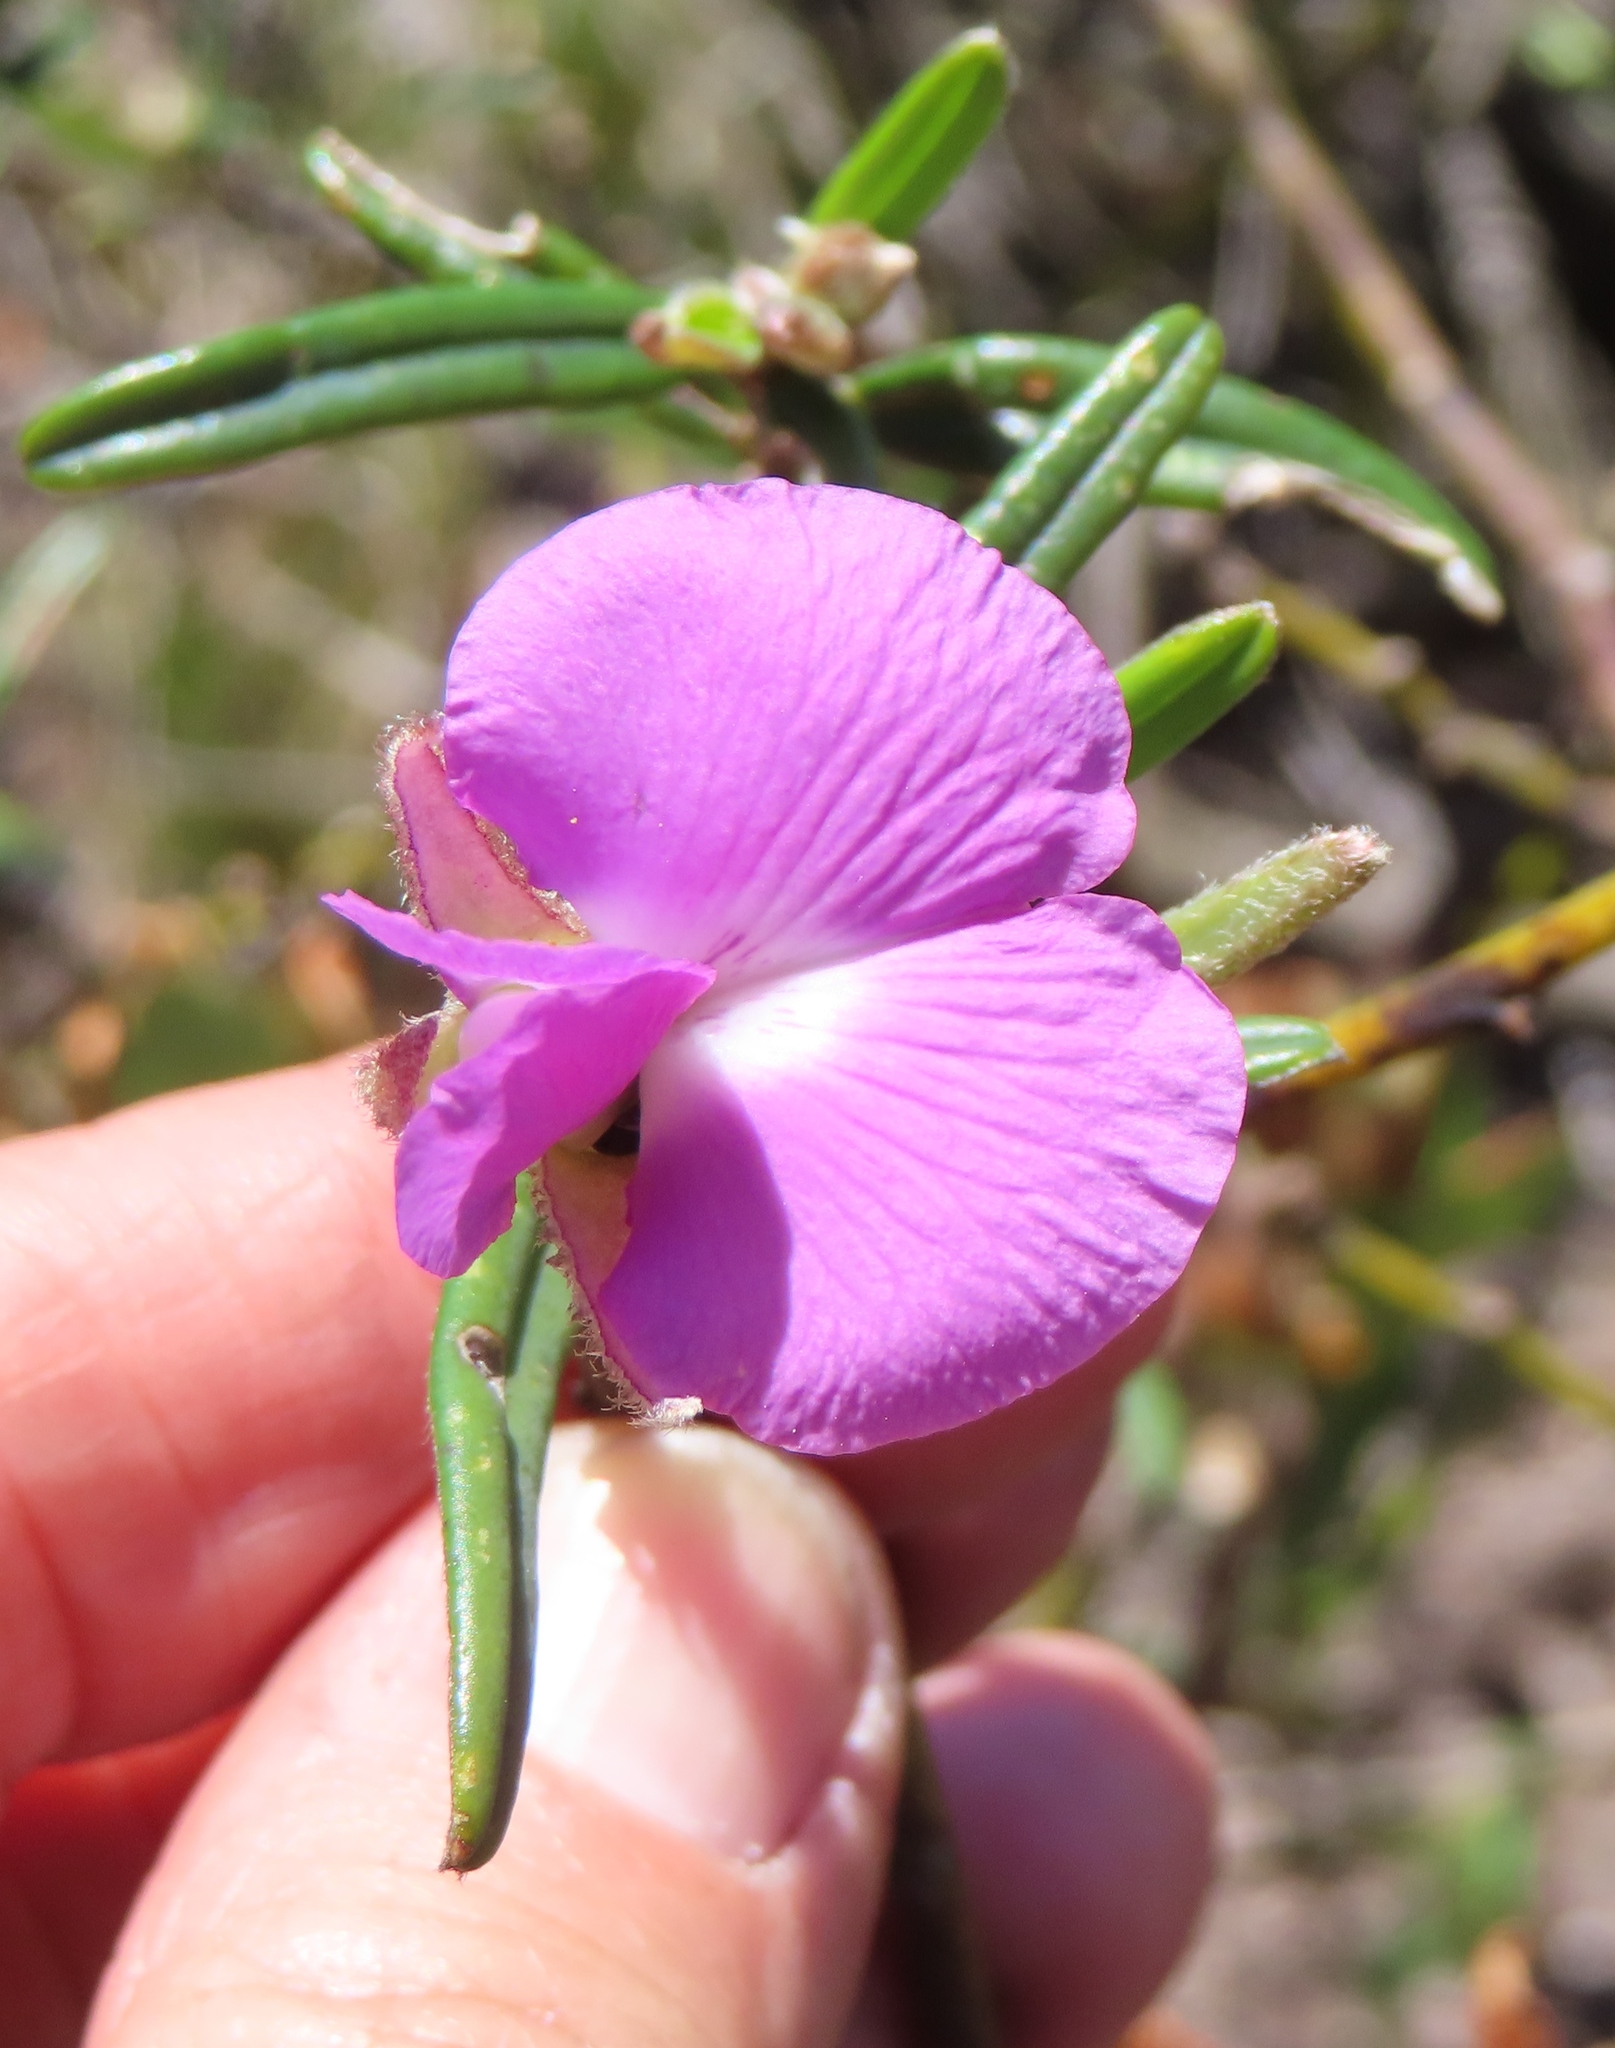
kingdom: Plantae
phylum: Tracheophyta
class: Magnoliopsida
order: Fabales
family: Fabaceae
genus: Podalyria
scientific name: Podalyria oleifolia
